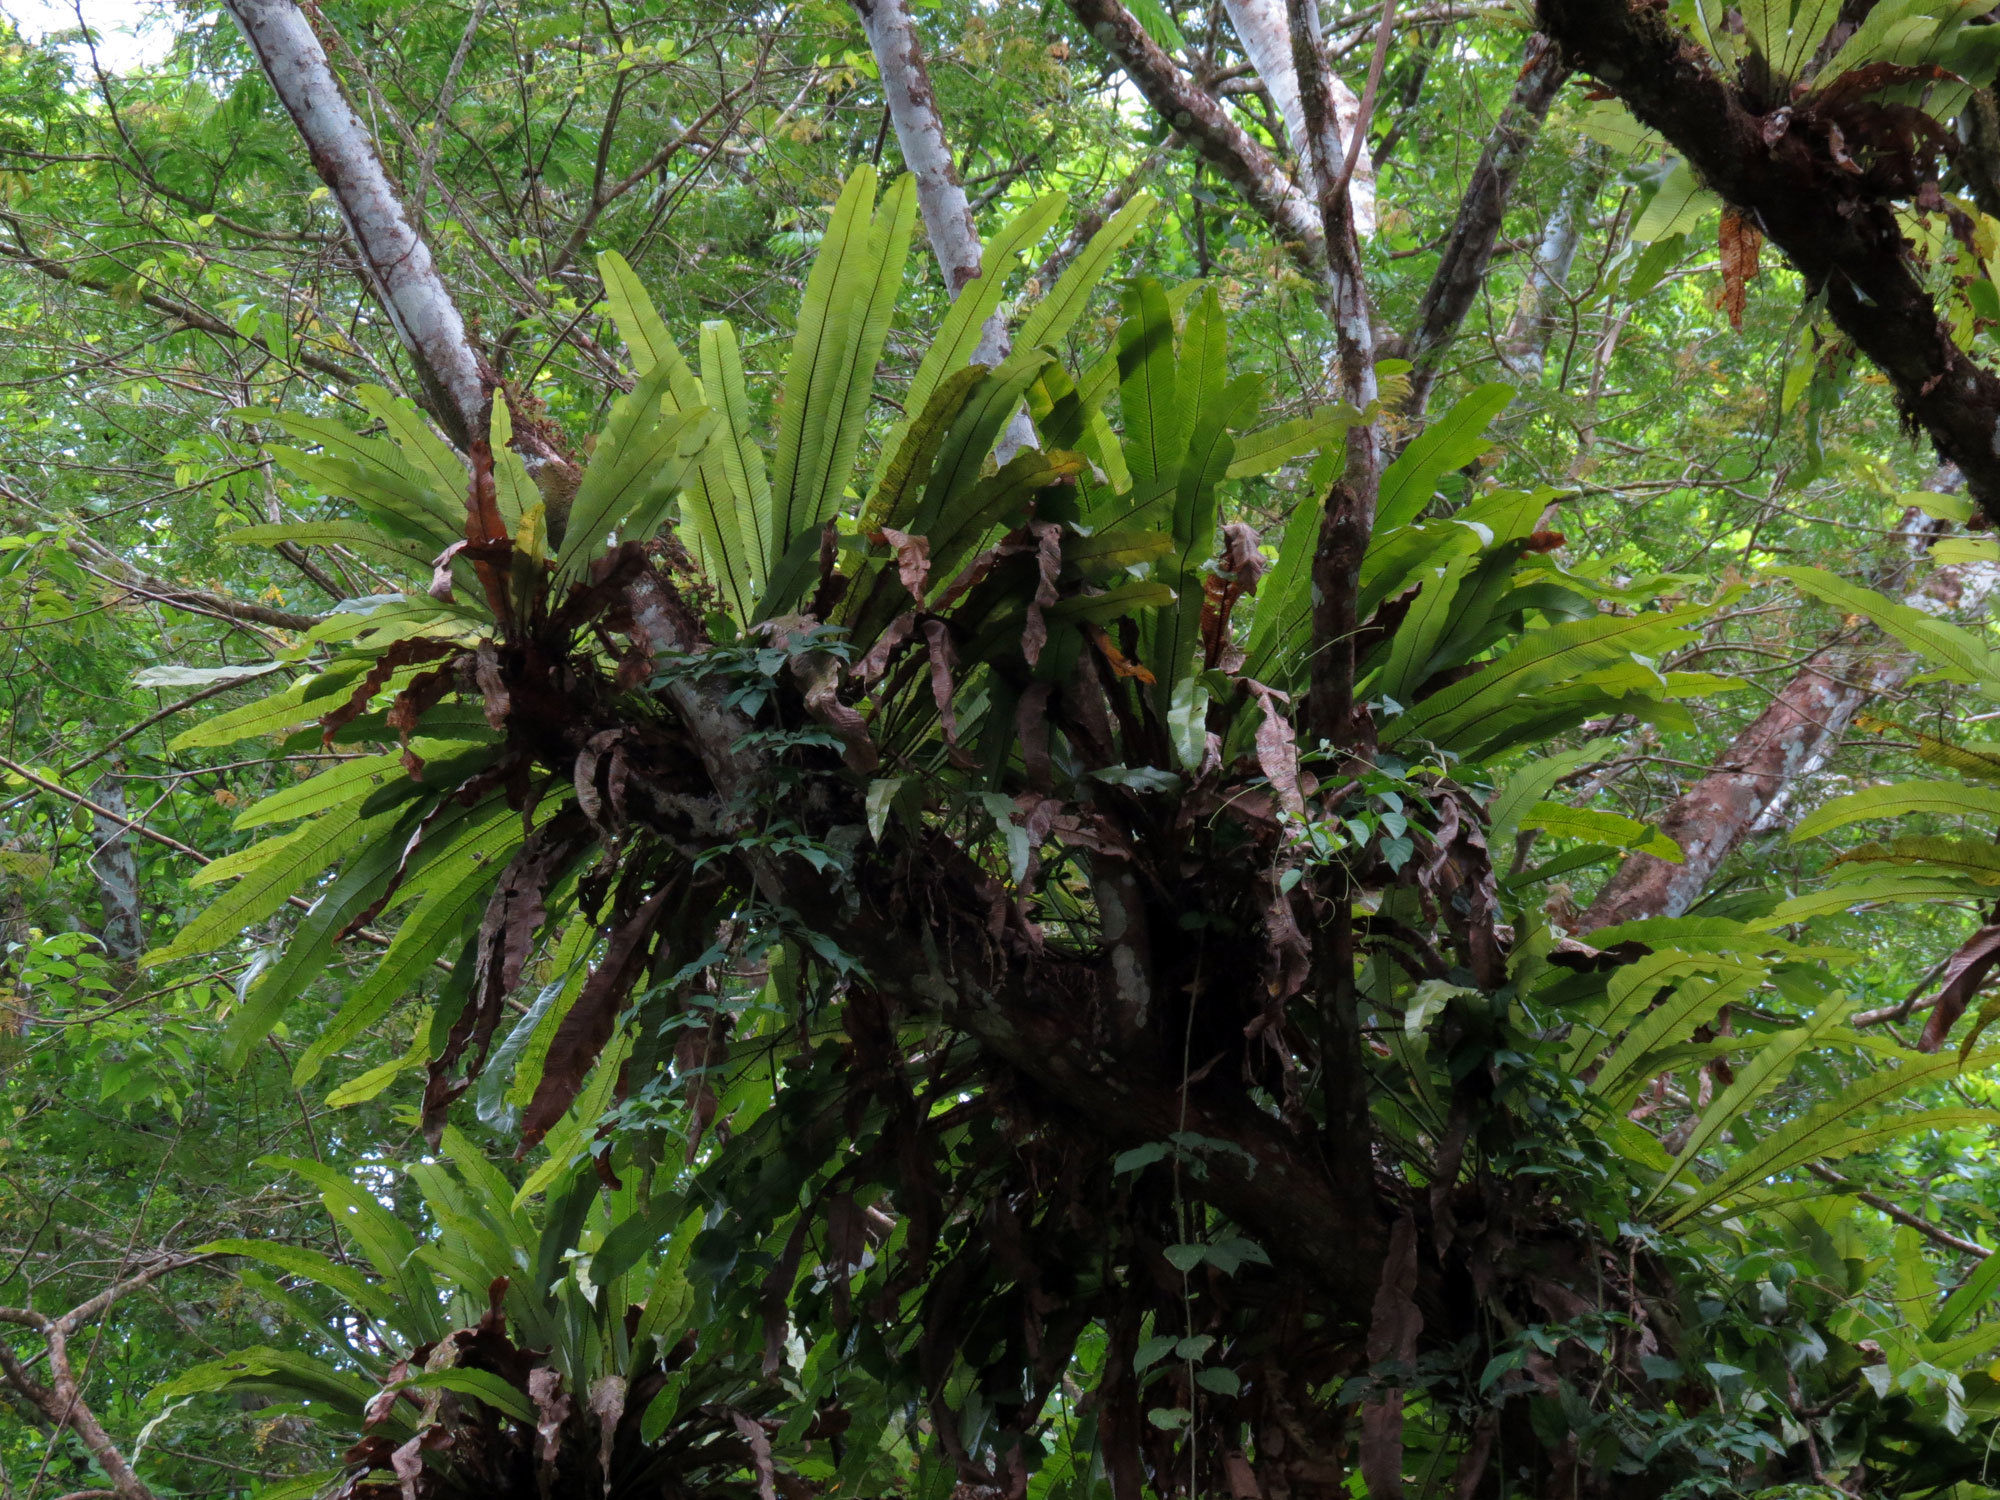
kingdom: Plantae
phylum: Tracheophyta
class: Polypodiopsida
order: Polypodiales
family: Polypodiaceae
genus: Niphidium
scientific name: Niphidium crassifolium
